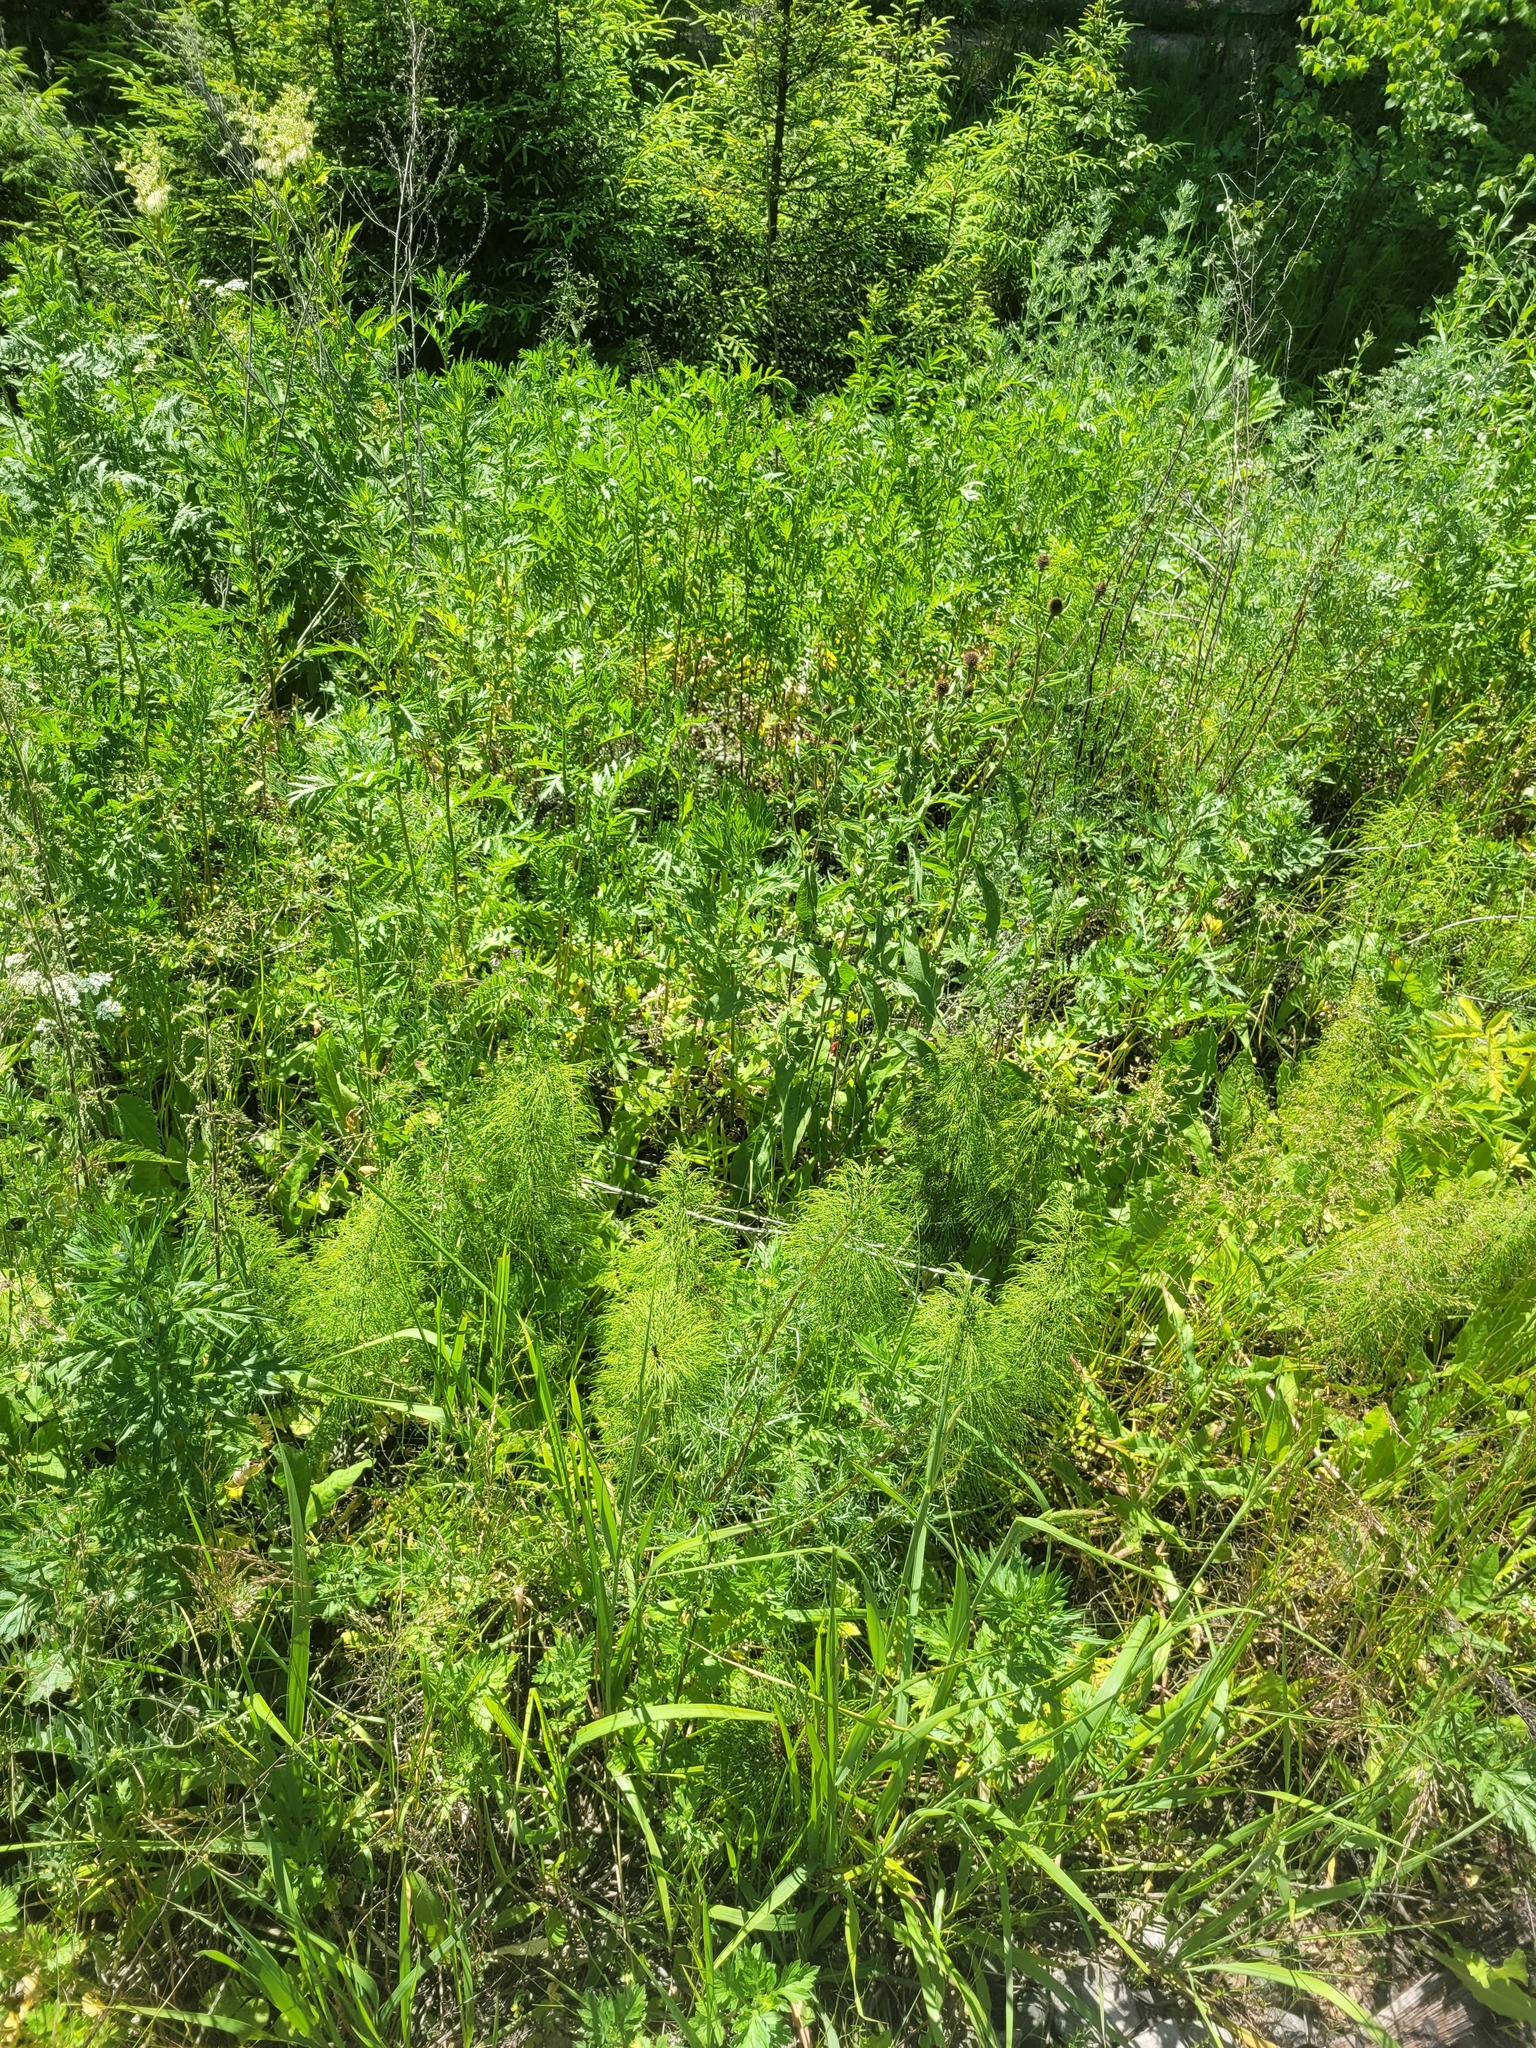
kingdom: Plantae
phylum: Tracheophyta
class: Polypodiopsida
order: Equisetales
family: Equisetaceae
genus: Equisetum
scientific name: Equisetum sylvaticum
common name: Wood horsetail
